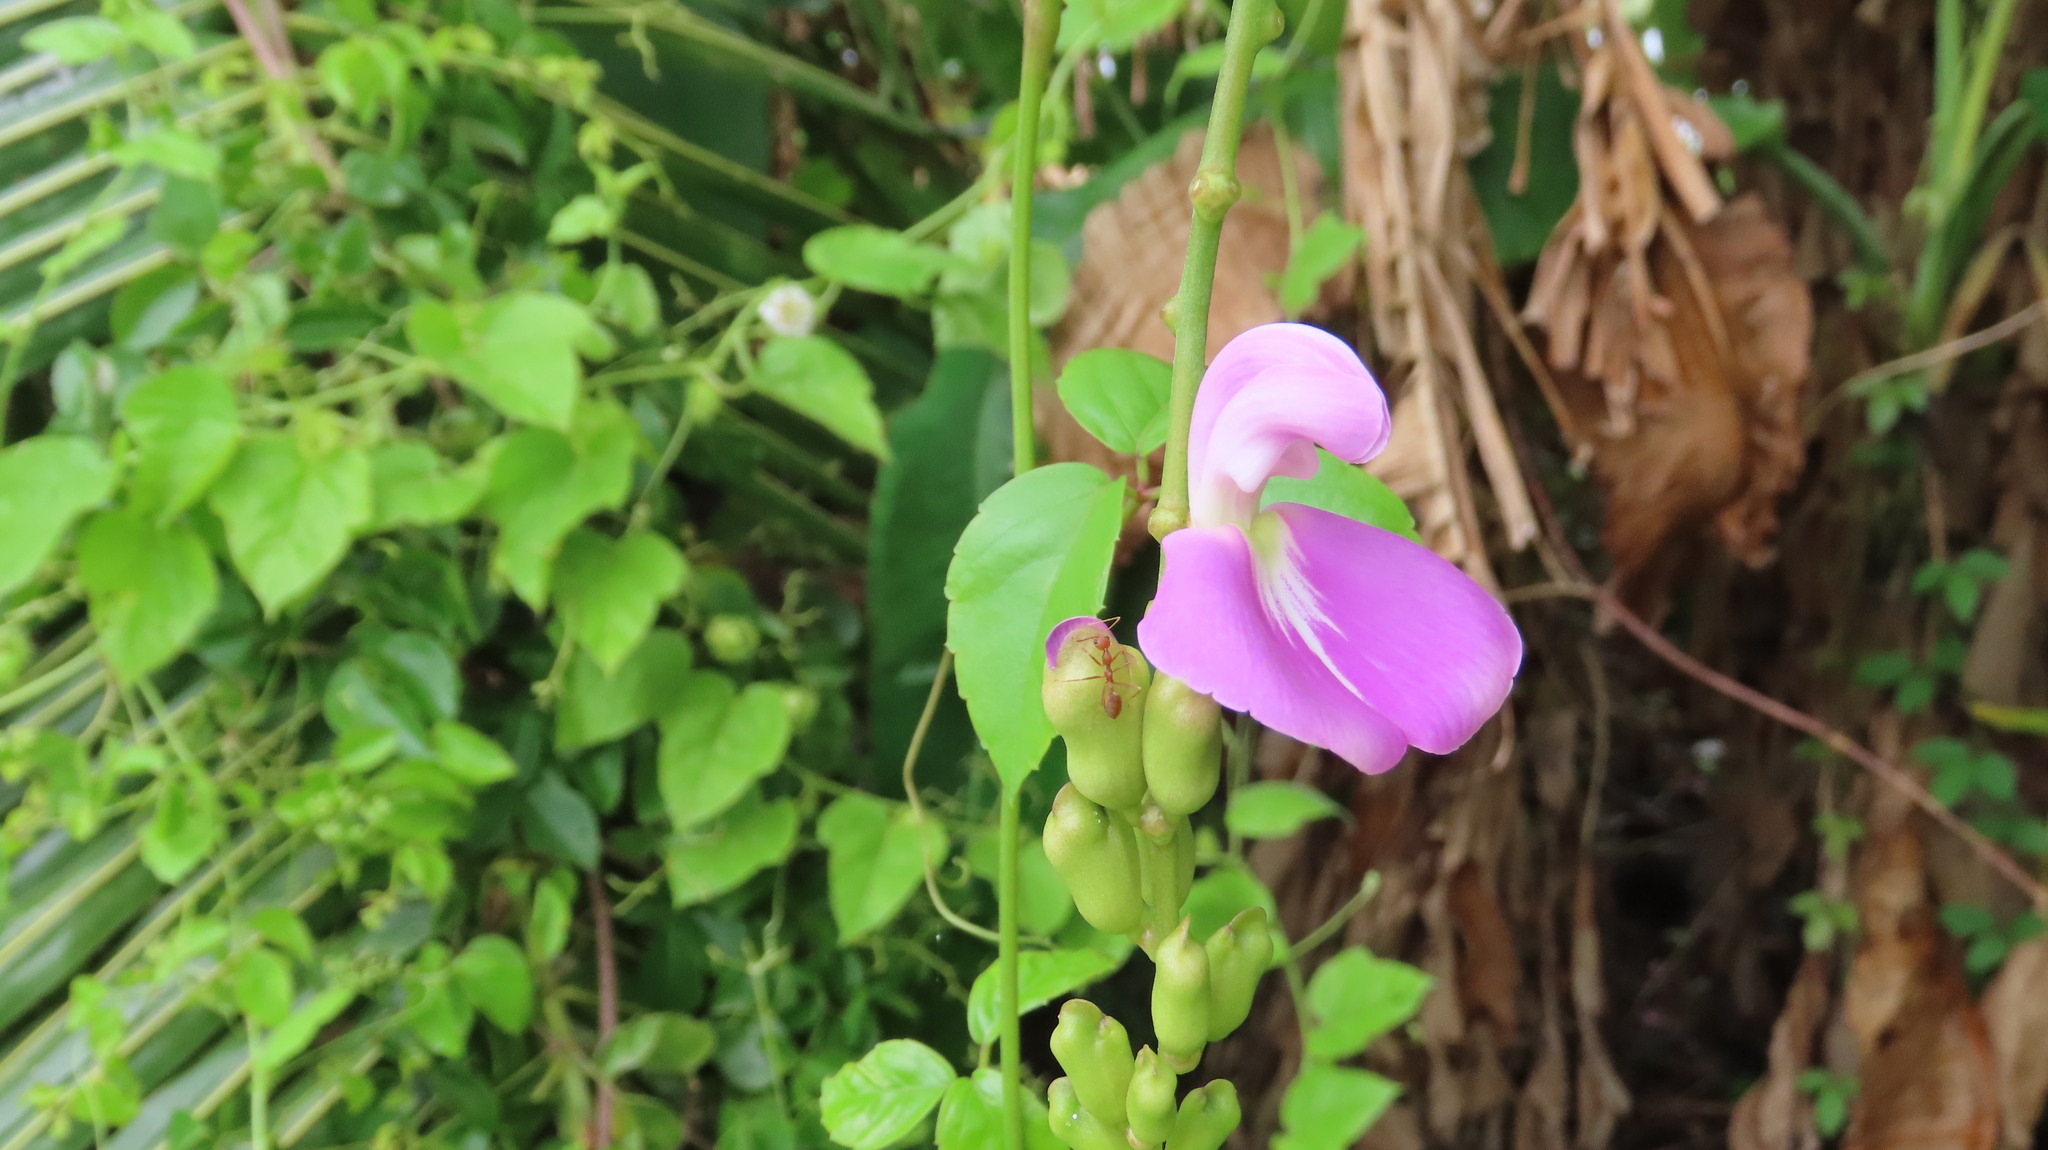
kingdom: Animalia
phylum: Arthropoda
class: Insecta
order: Hymenoptera
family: Formicidae
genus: Oecophylla
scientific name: Oecophylla smaragdina
